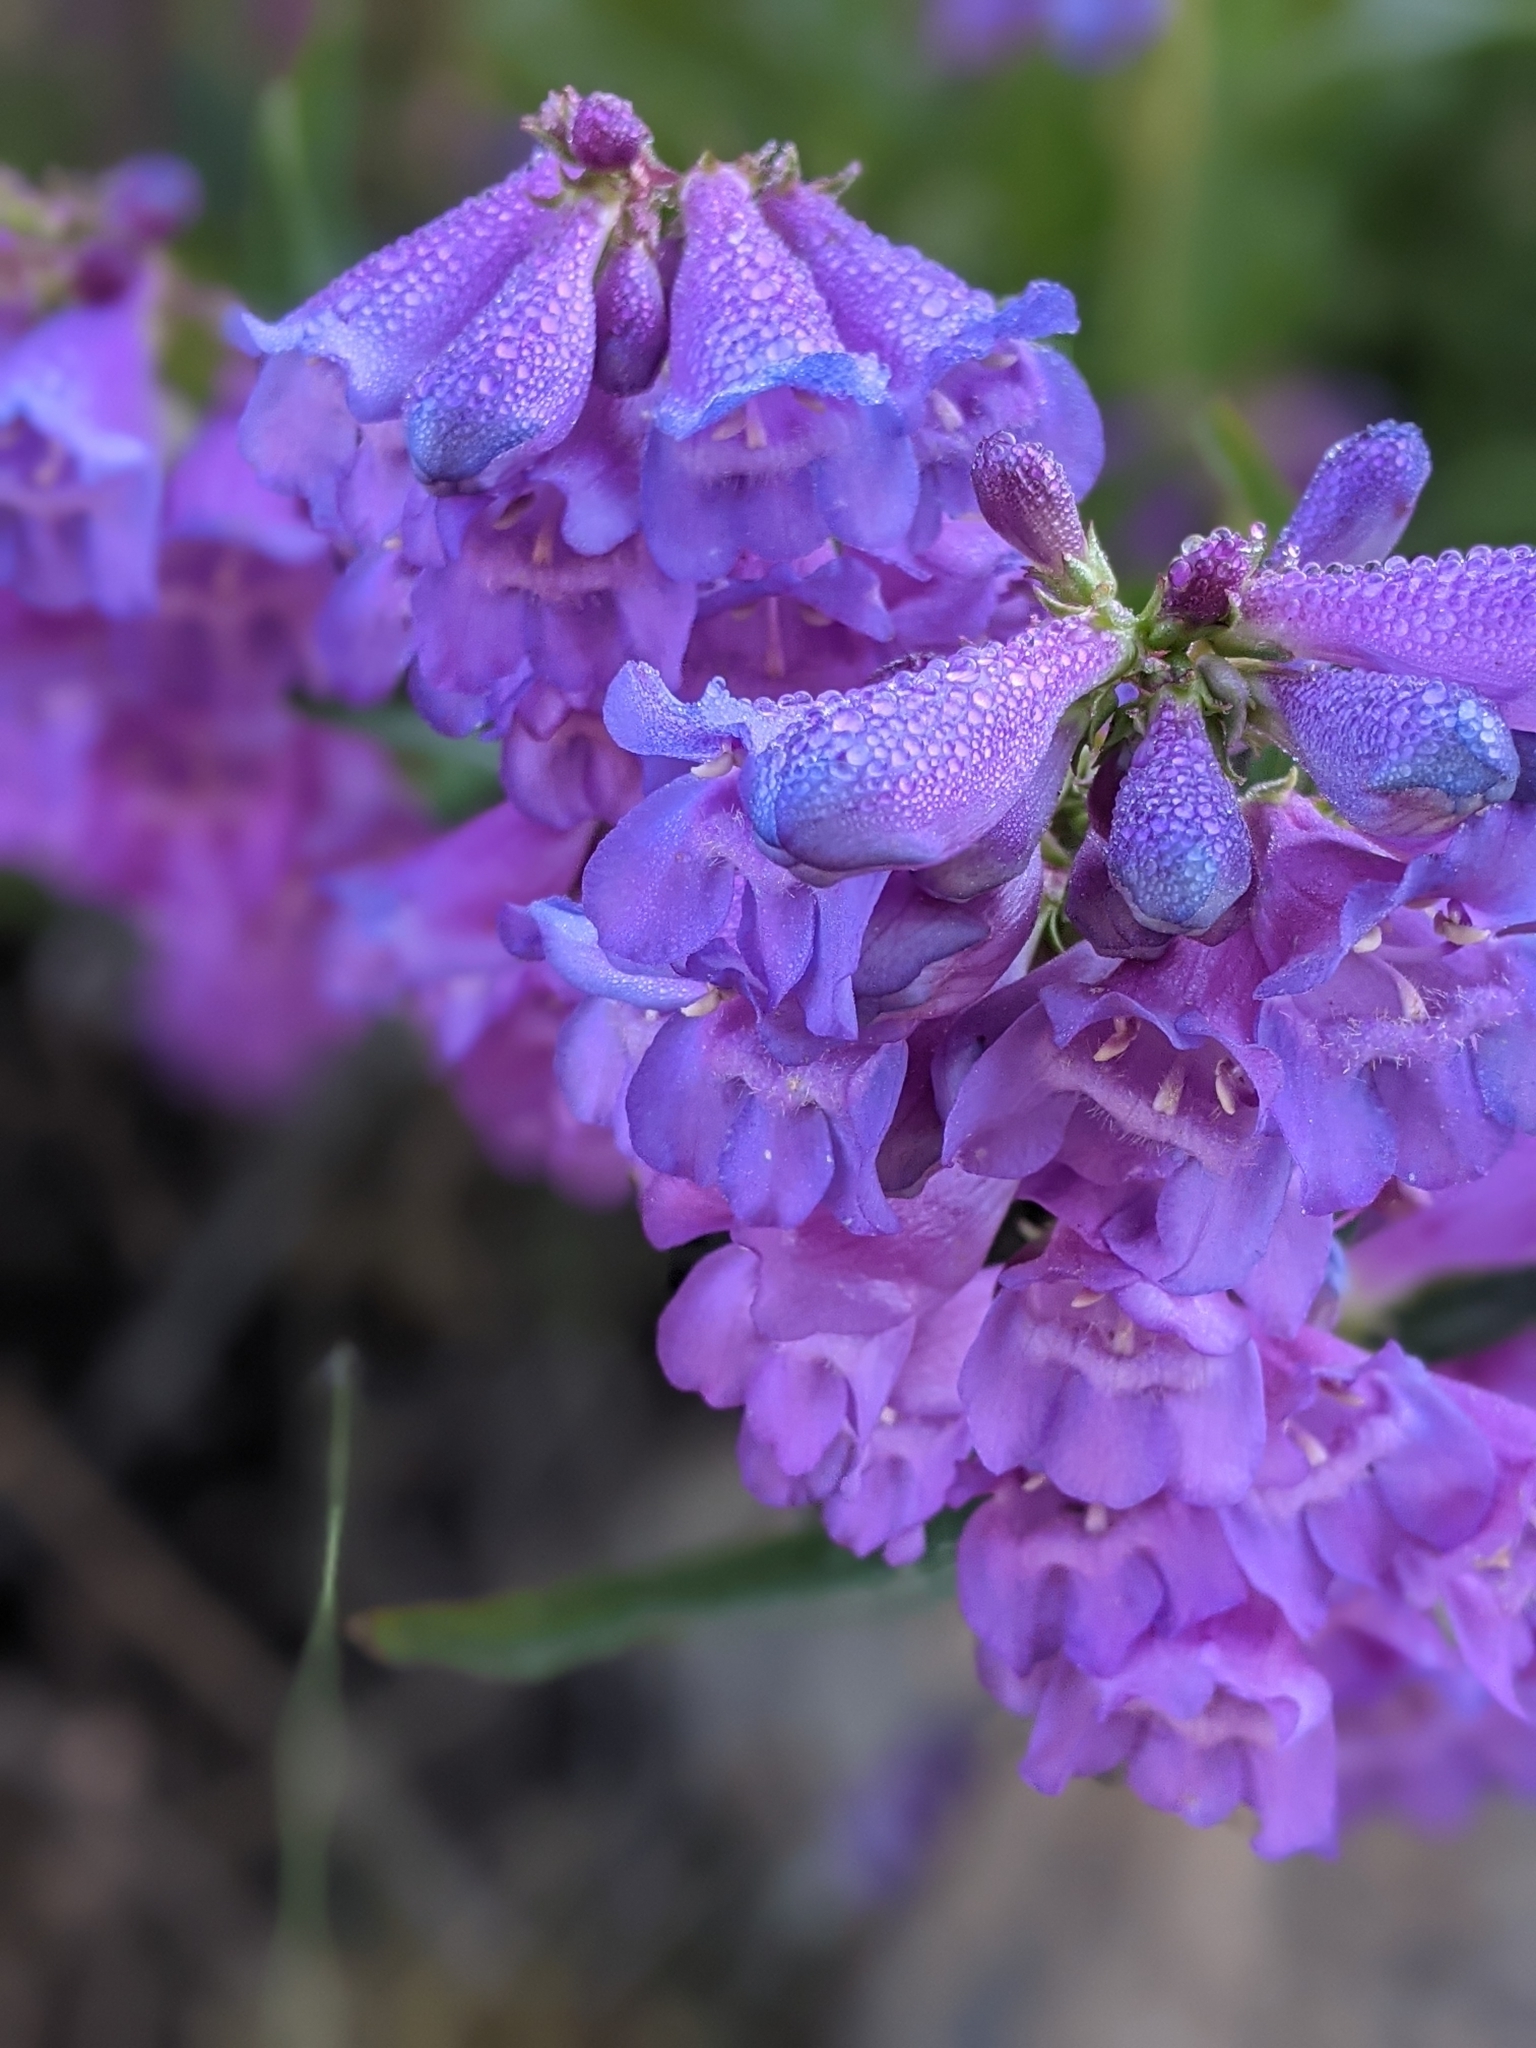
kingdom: Plantae
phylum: Tracheophyta
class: Magnoliopsida
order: Lamiales
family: Plantaginaceae
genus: Penstemon
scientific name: Penstemon glaber
